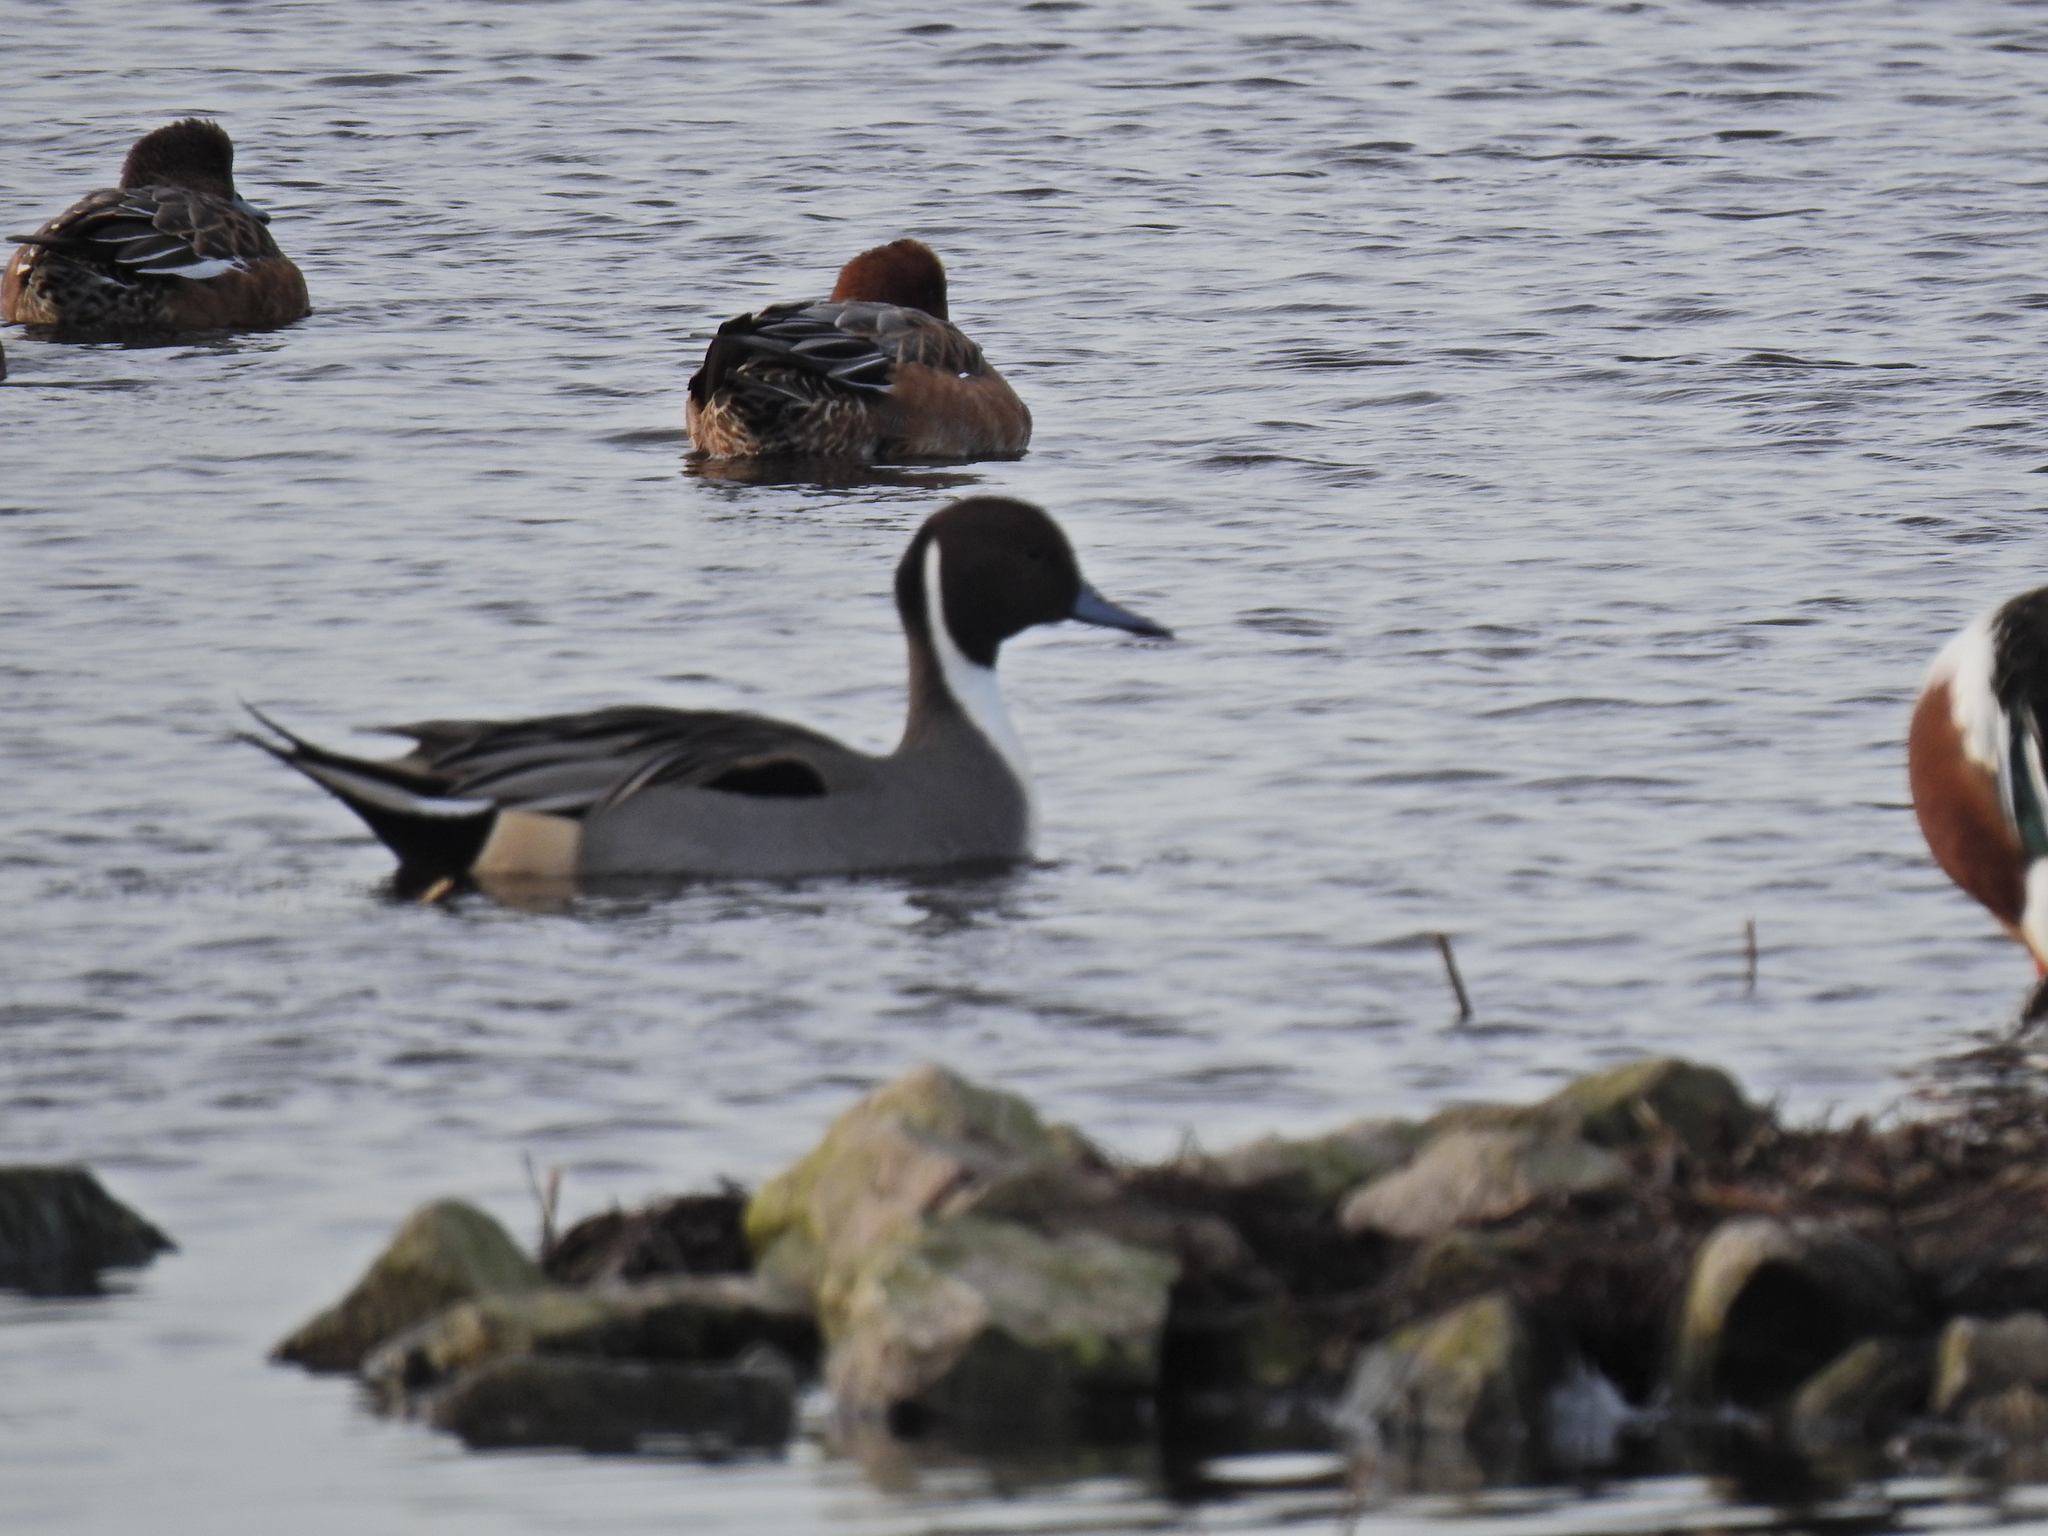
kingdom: Animalia
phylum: Chordata
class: Aves
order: Anseriformes
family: Anatidae
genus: Anas
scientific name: Anas acuta
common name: Northern pintail
